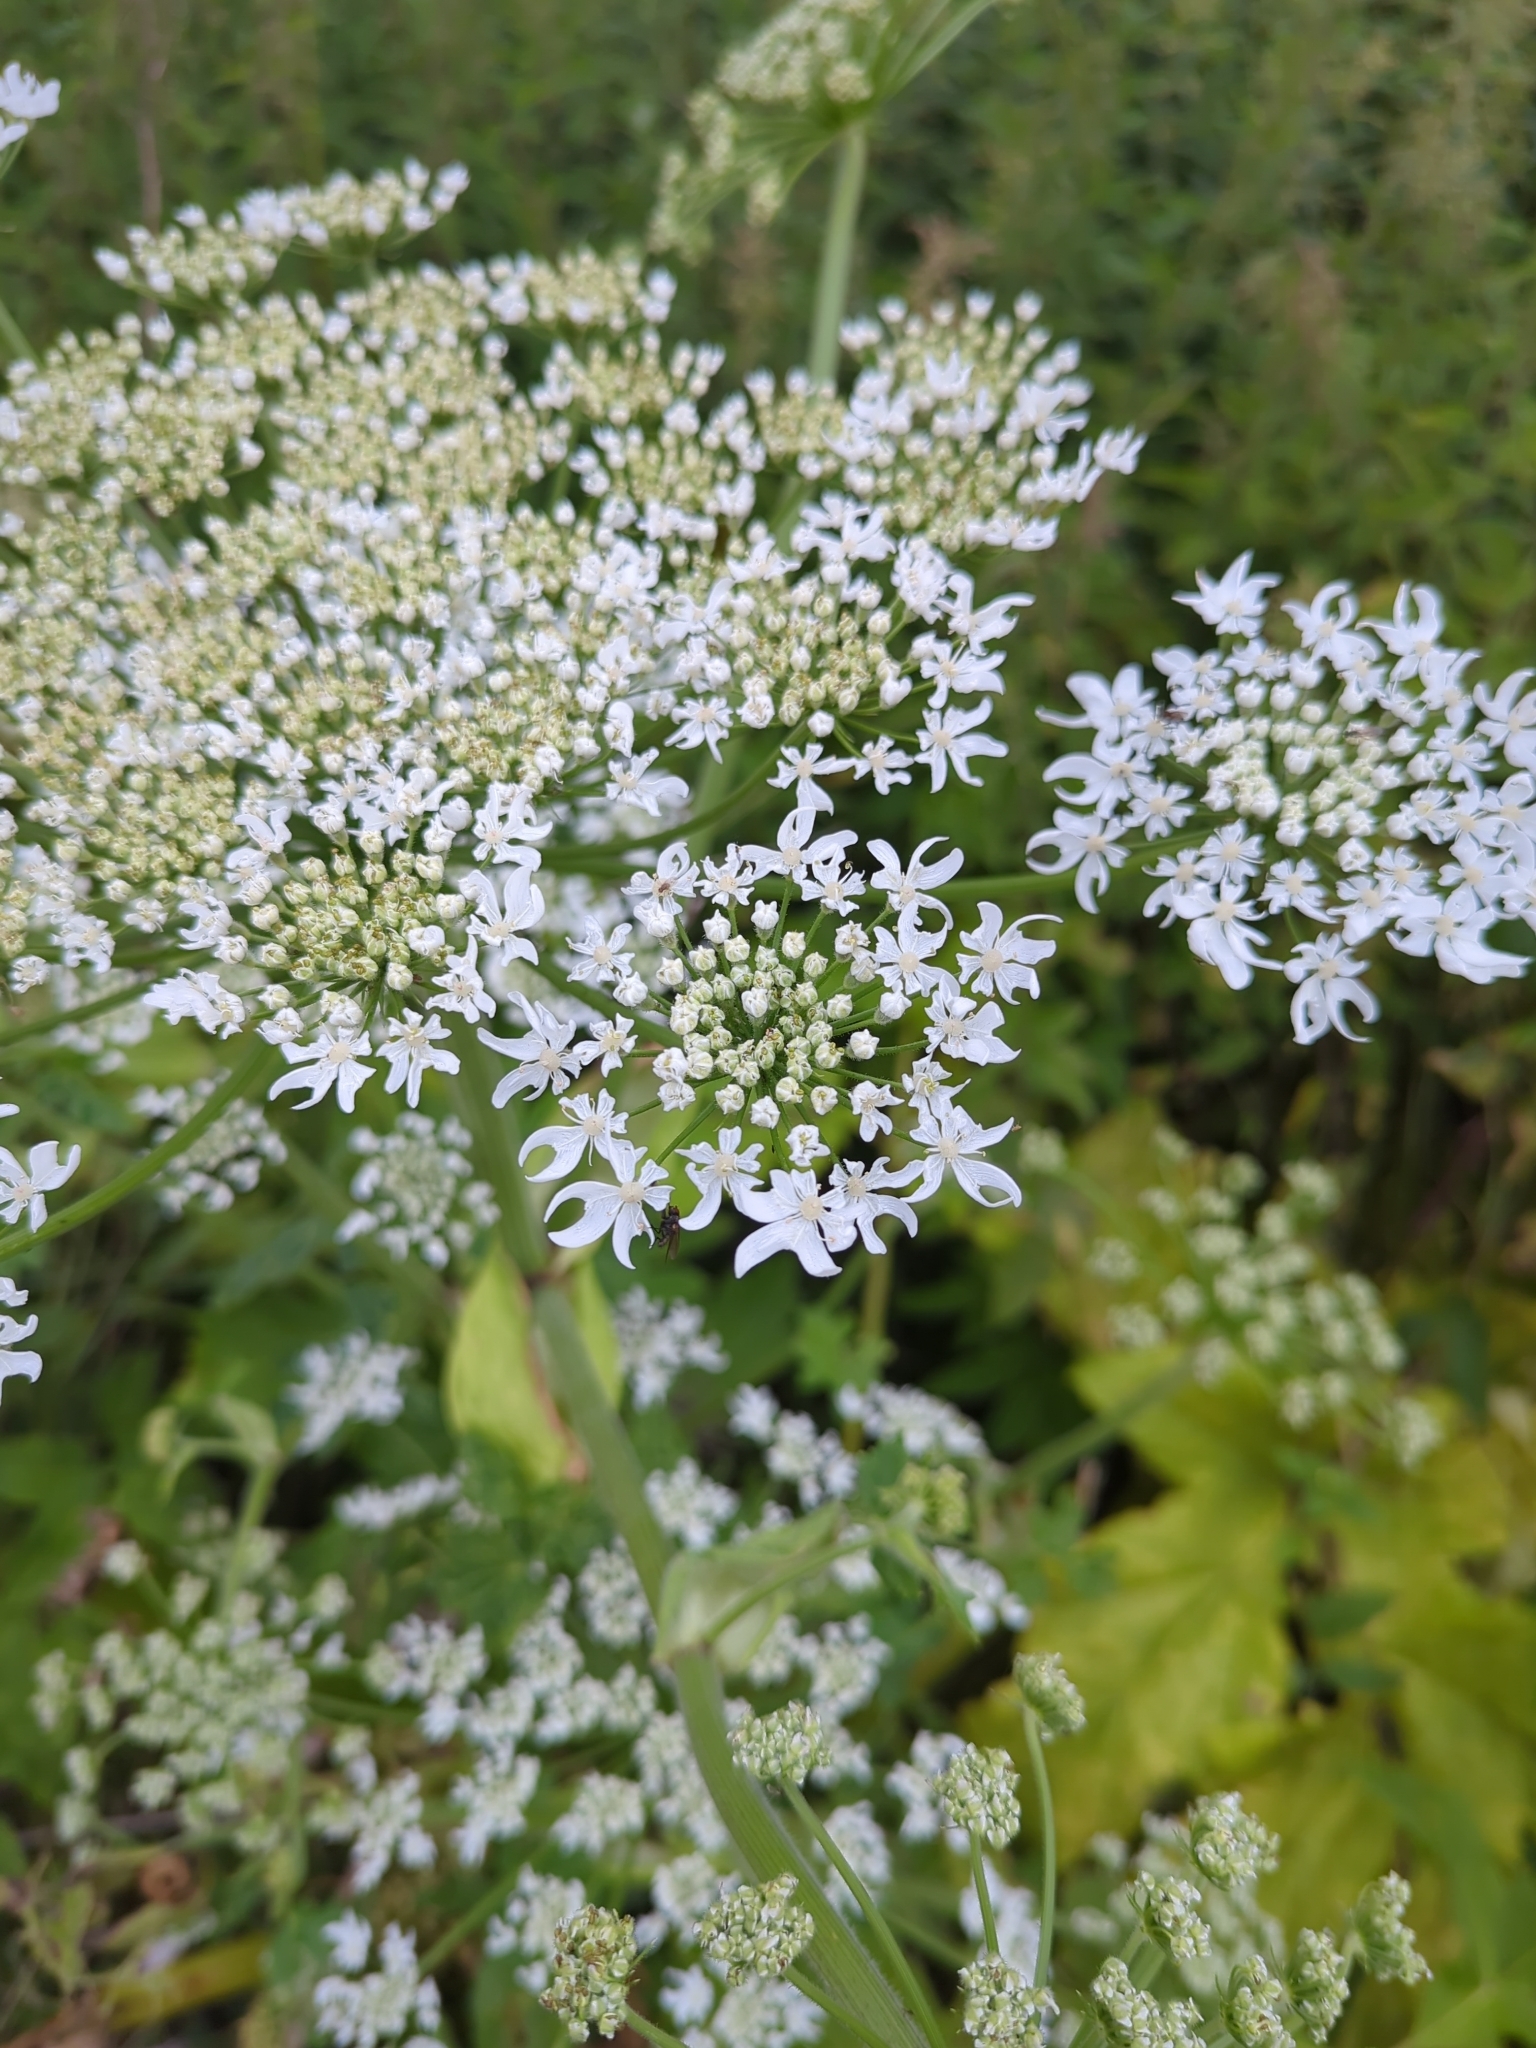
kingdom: Plantae
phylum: Tracheophyta
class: Magnoliopsida
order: Apiales
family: Apiaceae
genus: Heracleum
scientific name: Heracleum sosnowskyi
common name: Sosnowsky's hogweed
